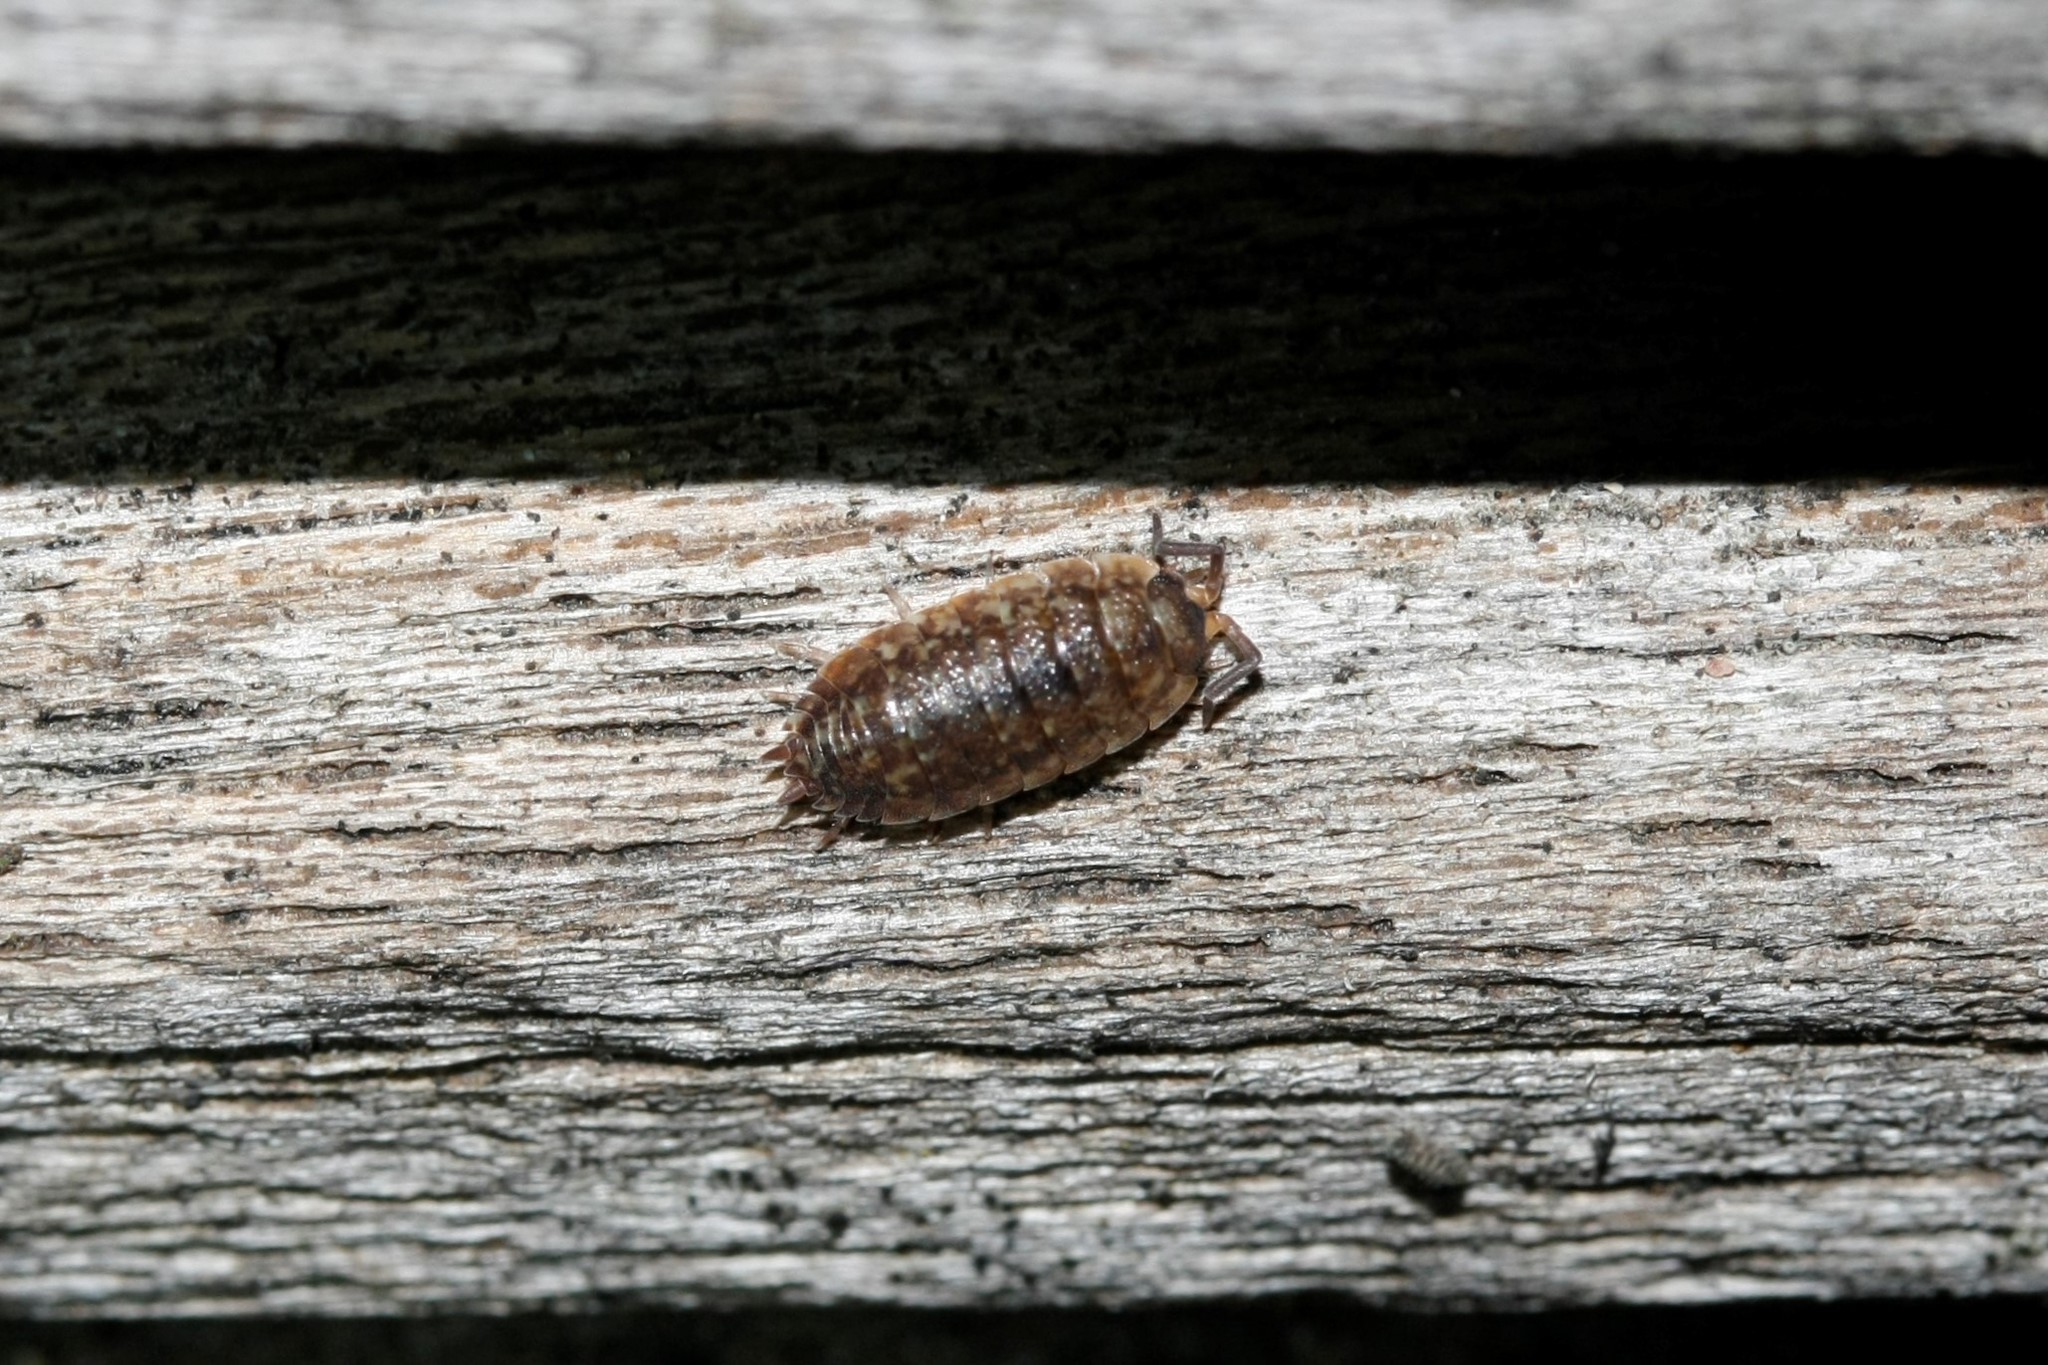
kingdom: Animalia
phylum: Arthropoda
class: Malacostraca
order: Isopoda
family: Trachelipodidae
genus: Trachelipus
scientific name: Trachelipus rathkii
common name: Isopod
